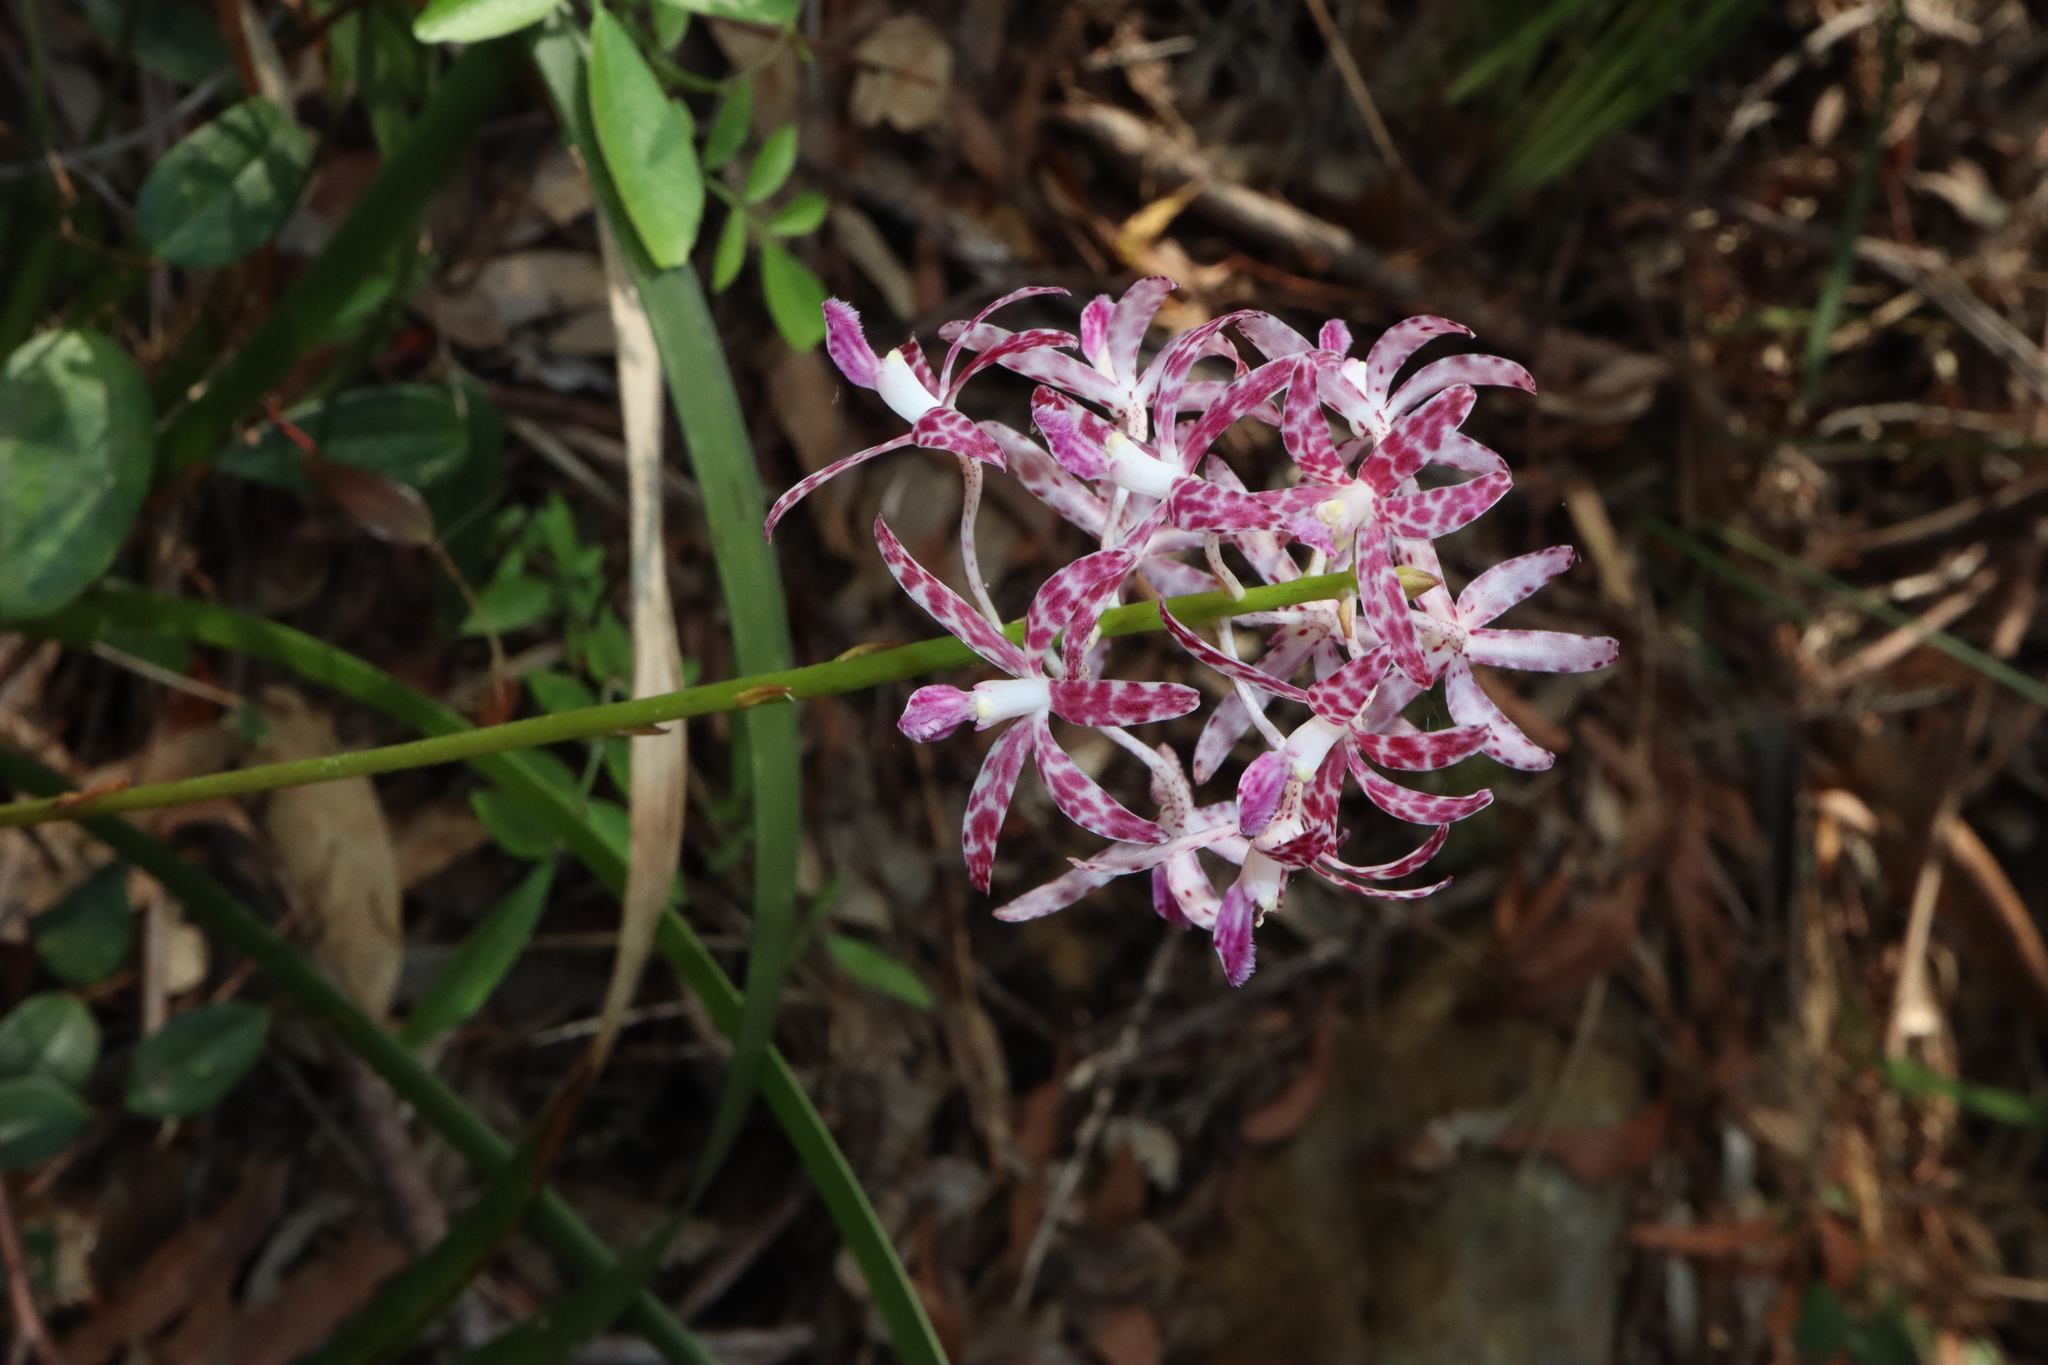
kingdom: Plantae
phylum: Tracheophyta
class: Liliopsida
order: Asparagales
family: Orchidaceae
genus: Dipodium
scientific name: Dipodium variegatum
